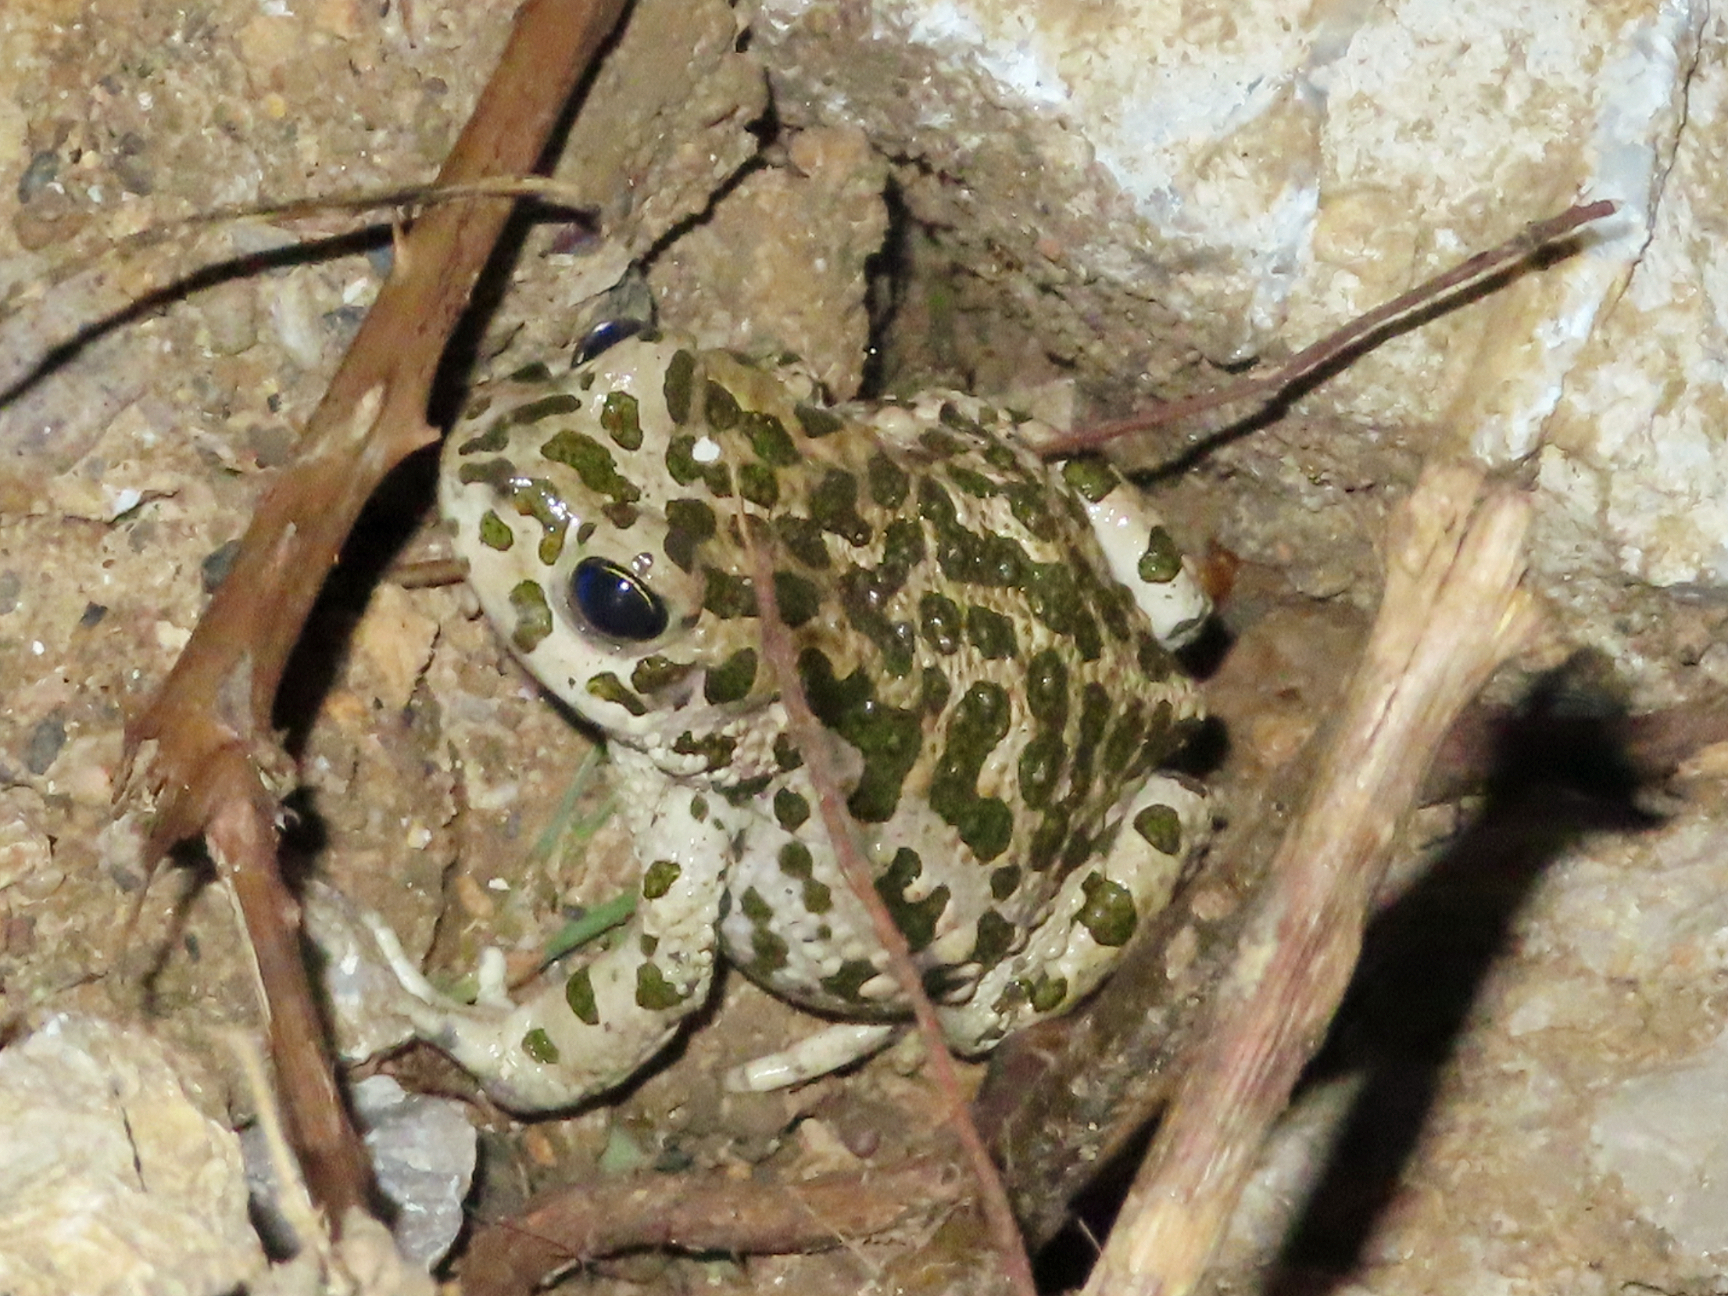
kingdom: Animalia
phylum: Chordata
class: Amphibia
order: Anura
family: Bufonidae
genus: Bufotes
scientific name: Bufotes viridis
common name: European green toad
